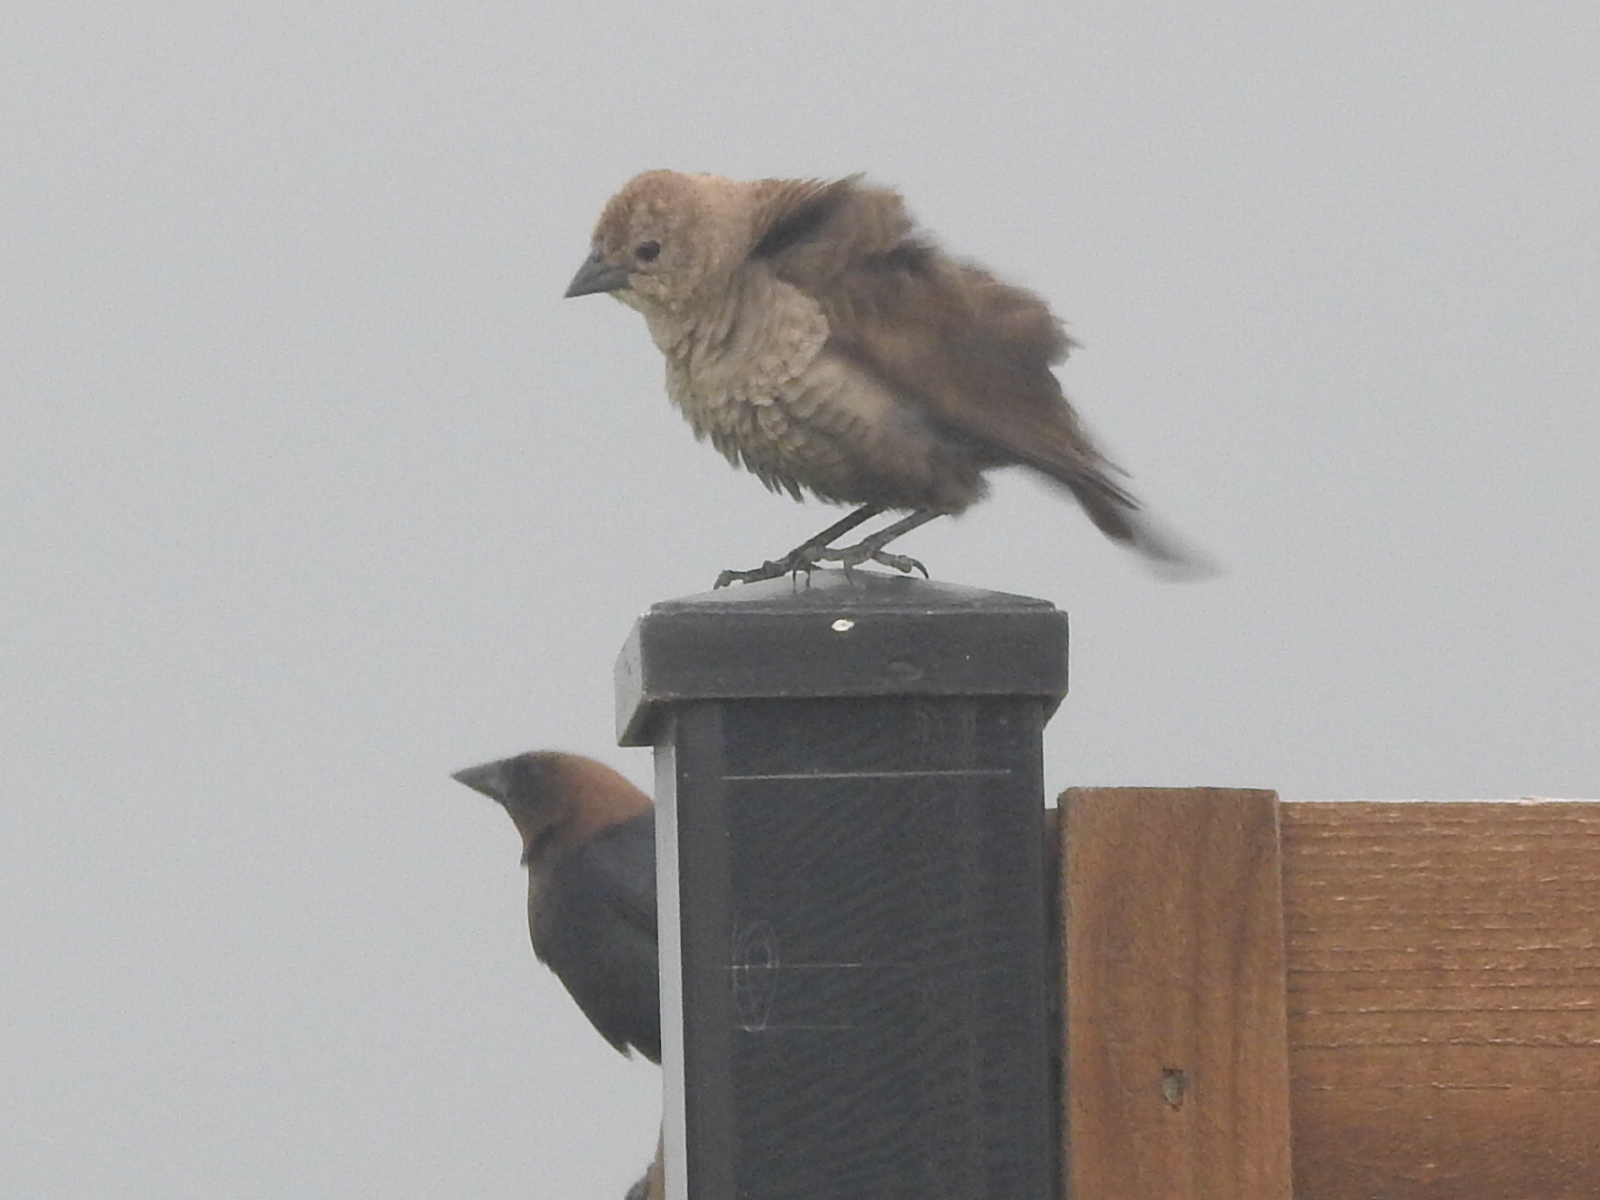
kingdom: Animalia
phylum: Chordata
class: Aves
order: Passeriformes
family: Icteridae
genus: Molothrus
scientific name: Molothrus ater
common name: Brown-headed cowbird
